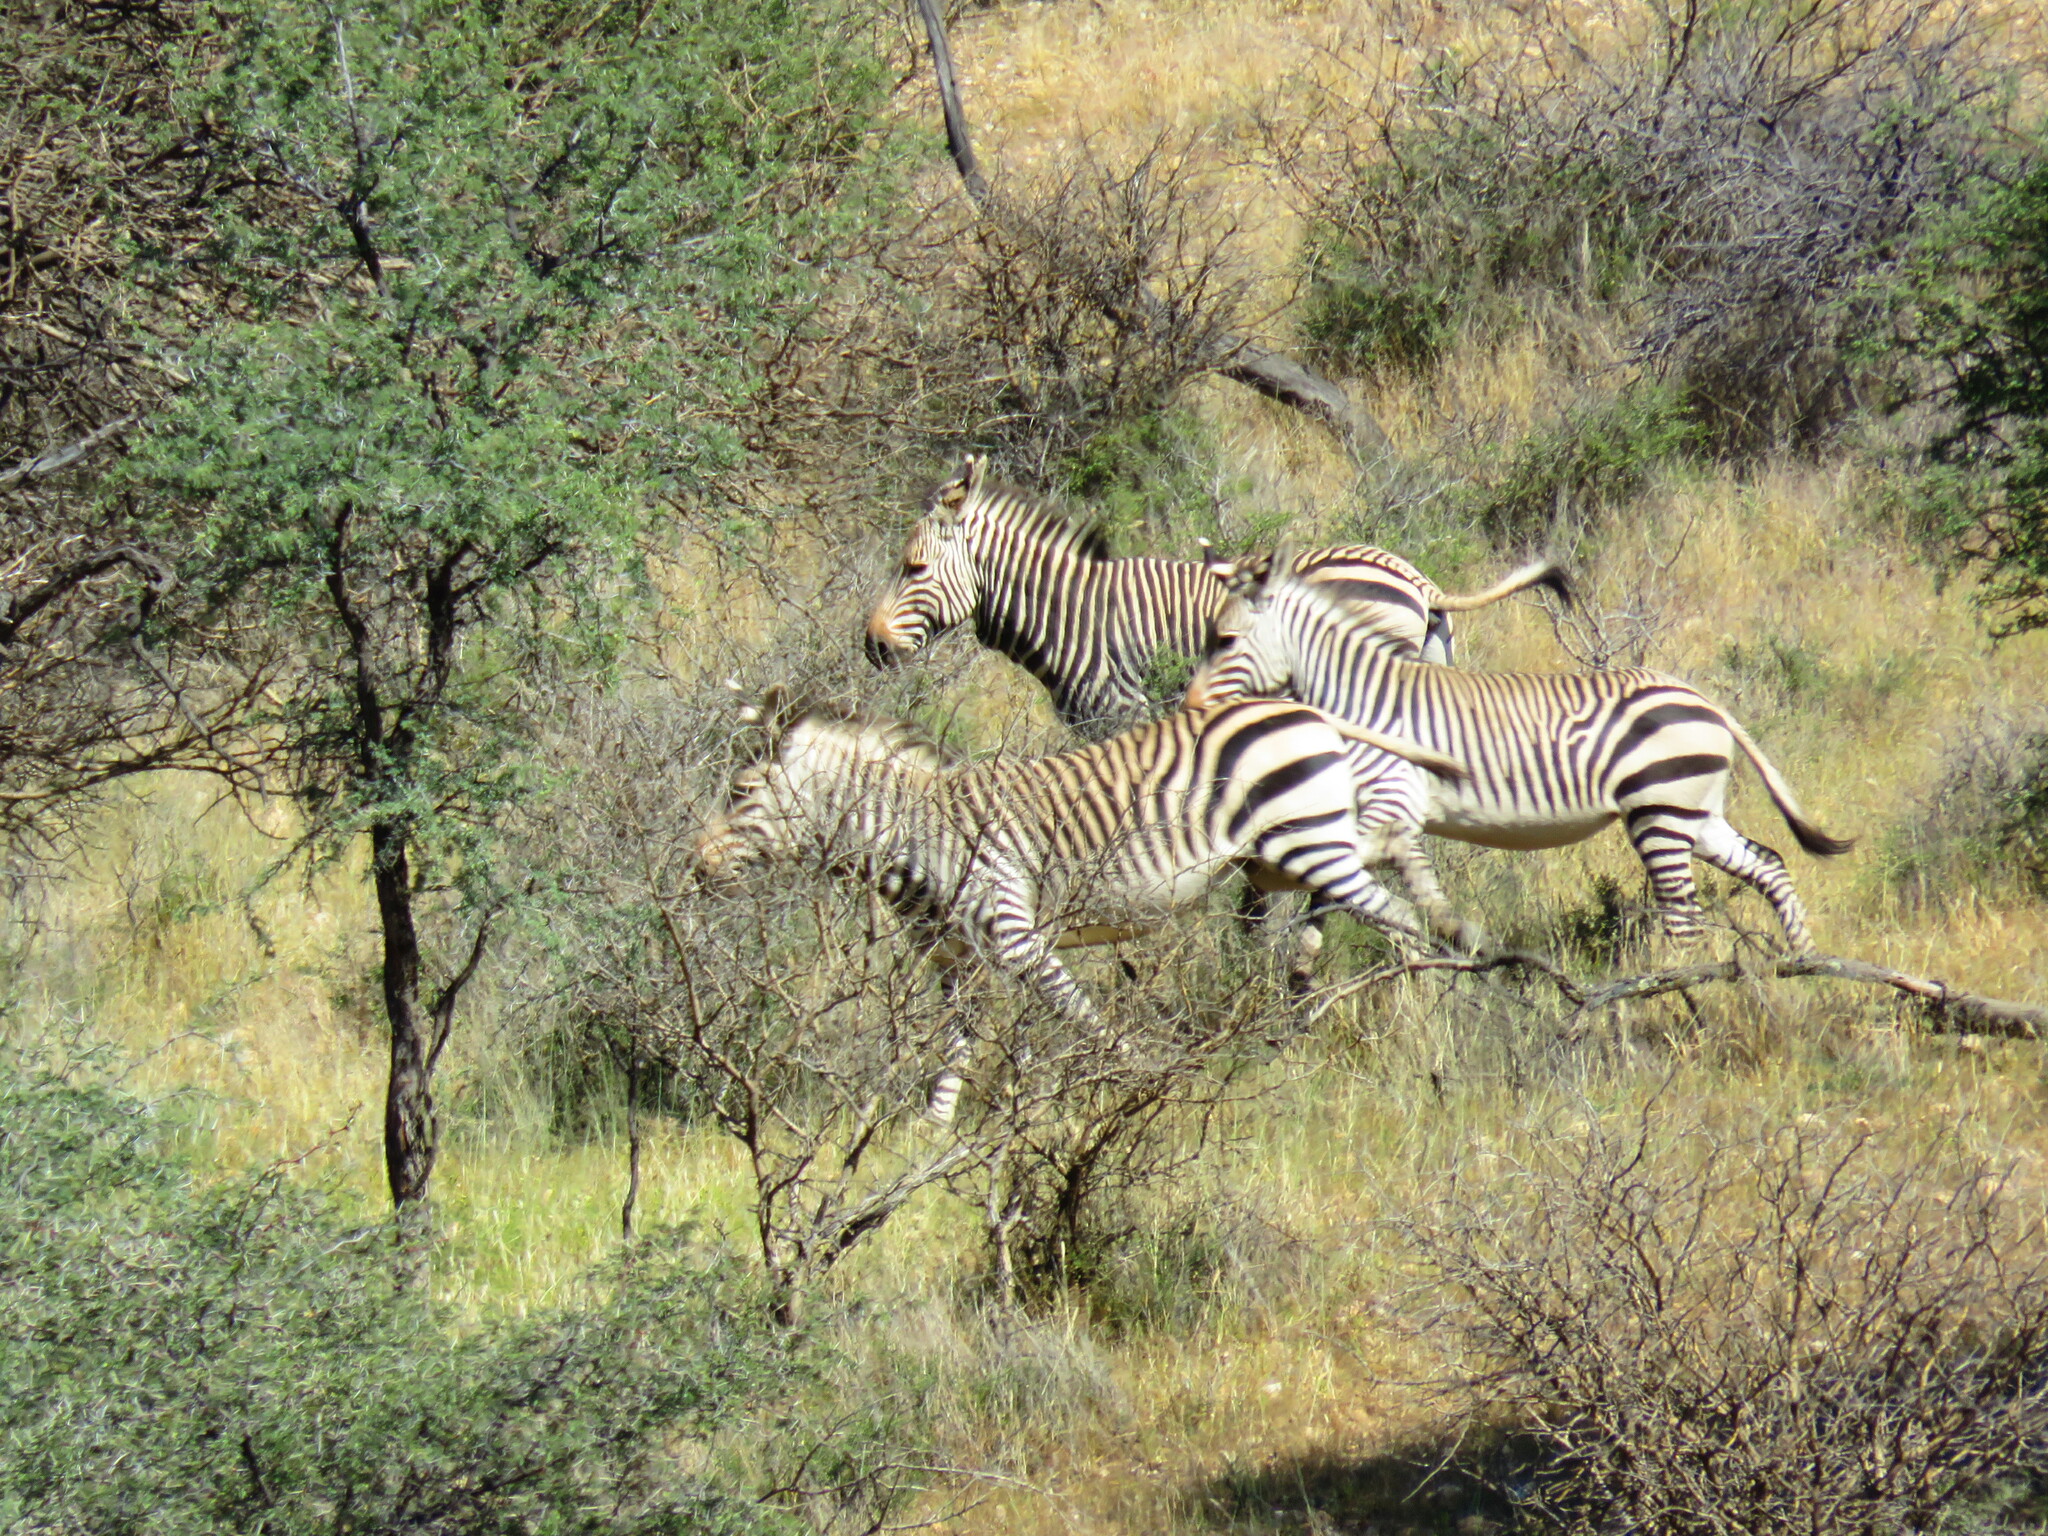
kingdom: Animalia
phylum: Chordata
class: Mammalia
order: Perissodactyla
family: Equidae
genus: Equus
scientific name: Equus hartmannae
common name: Hartmann's mountain zebra
